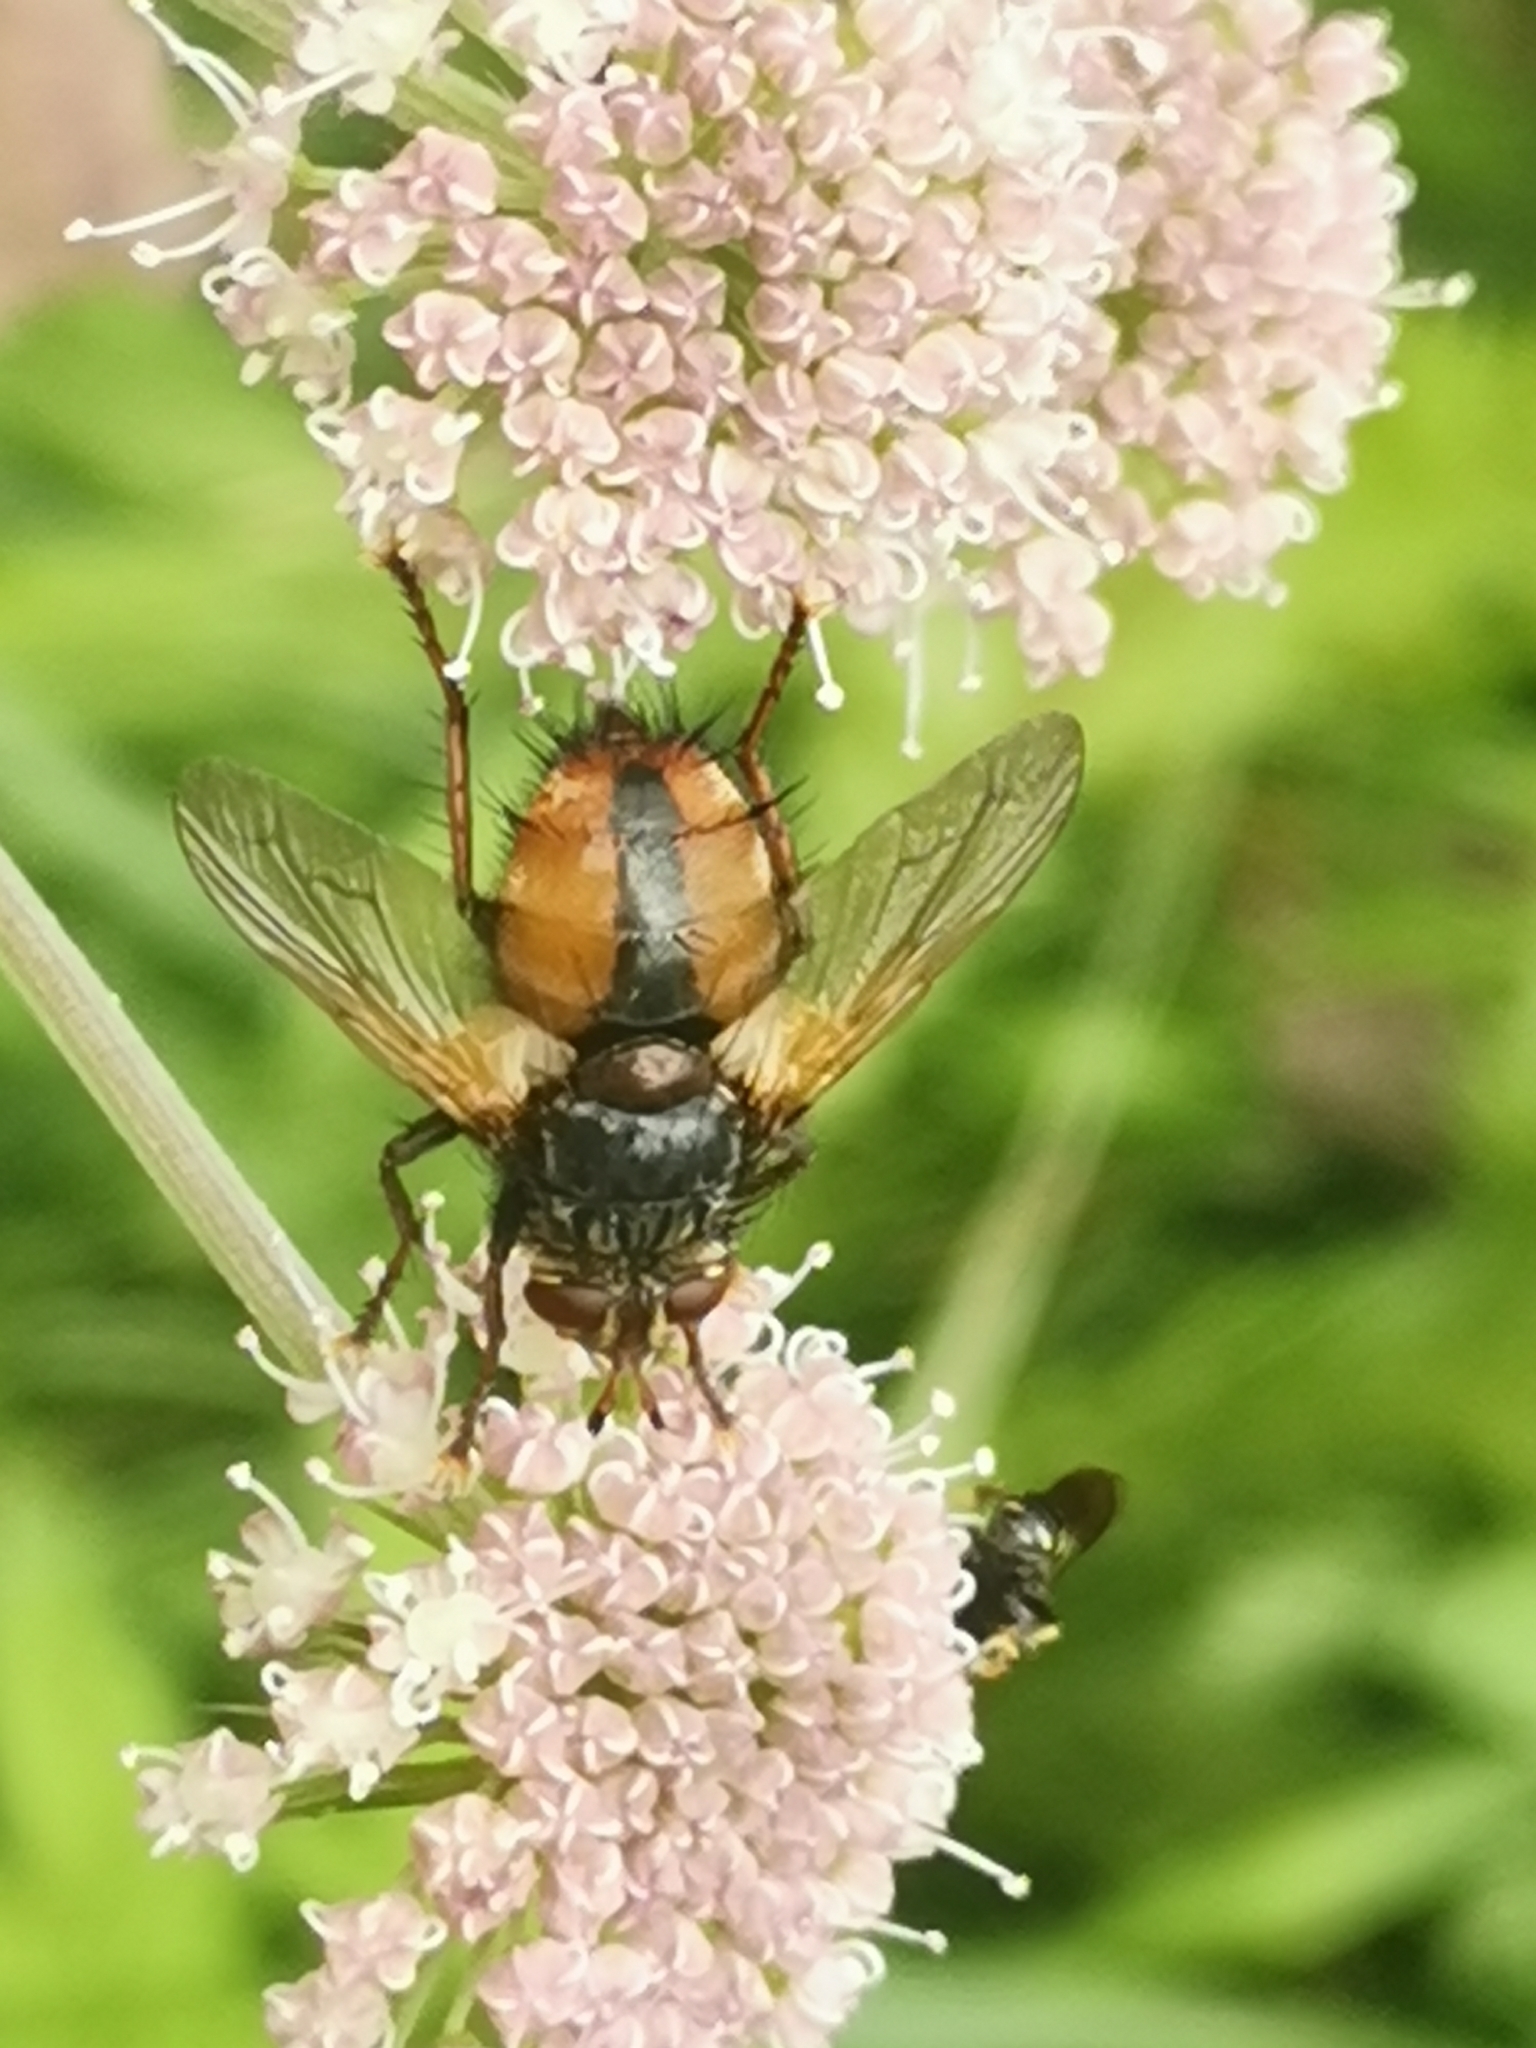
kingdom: Animalia
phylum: Arthropoda
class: Insecta
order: Diptera
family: Tachinidae
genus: Tachina
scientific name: Tachina fera
